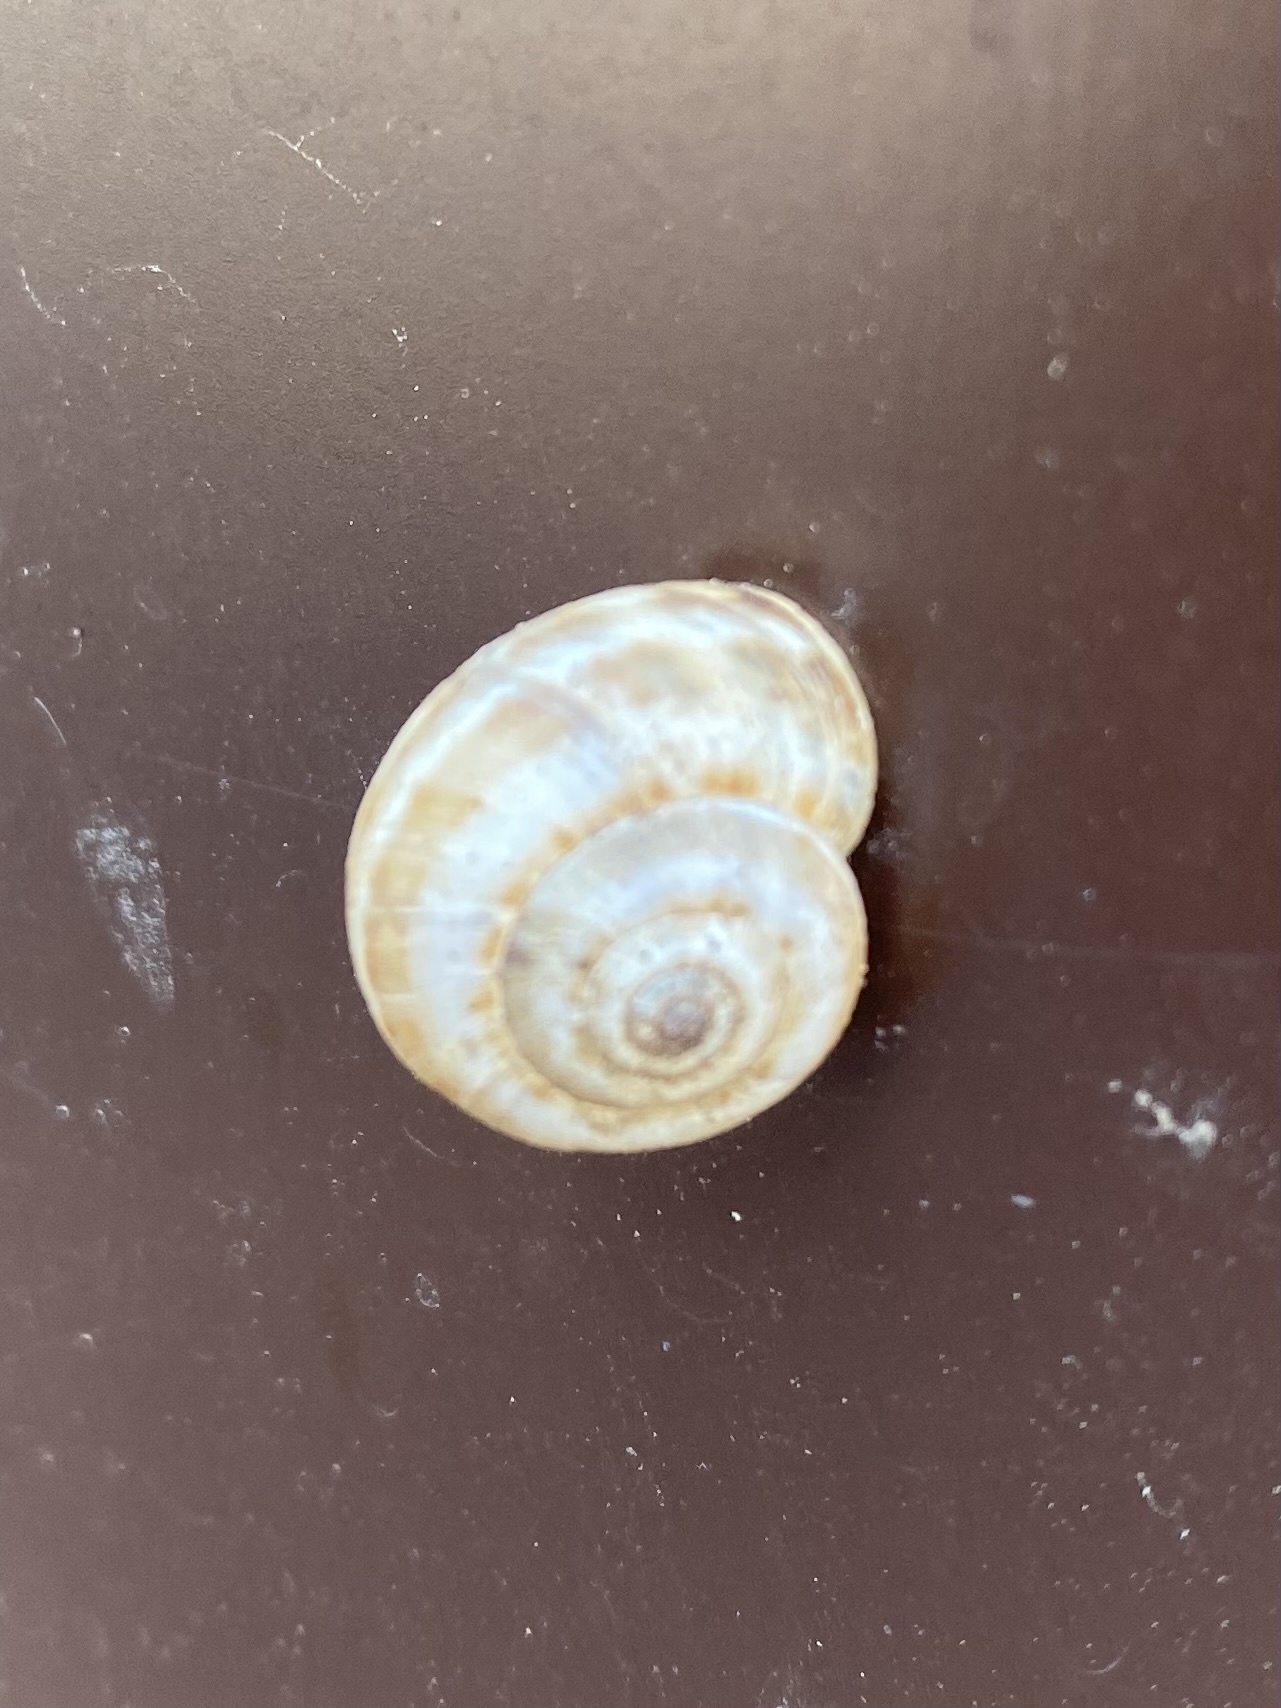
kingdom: Animalia
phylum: Mollusca
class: Gastropoda
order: Stylommatophora
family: Geomitridae
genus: Xeropicta
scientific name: Xeropicta derbentina
